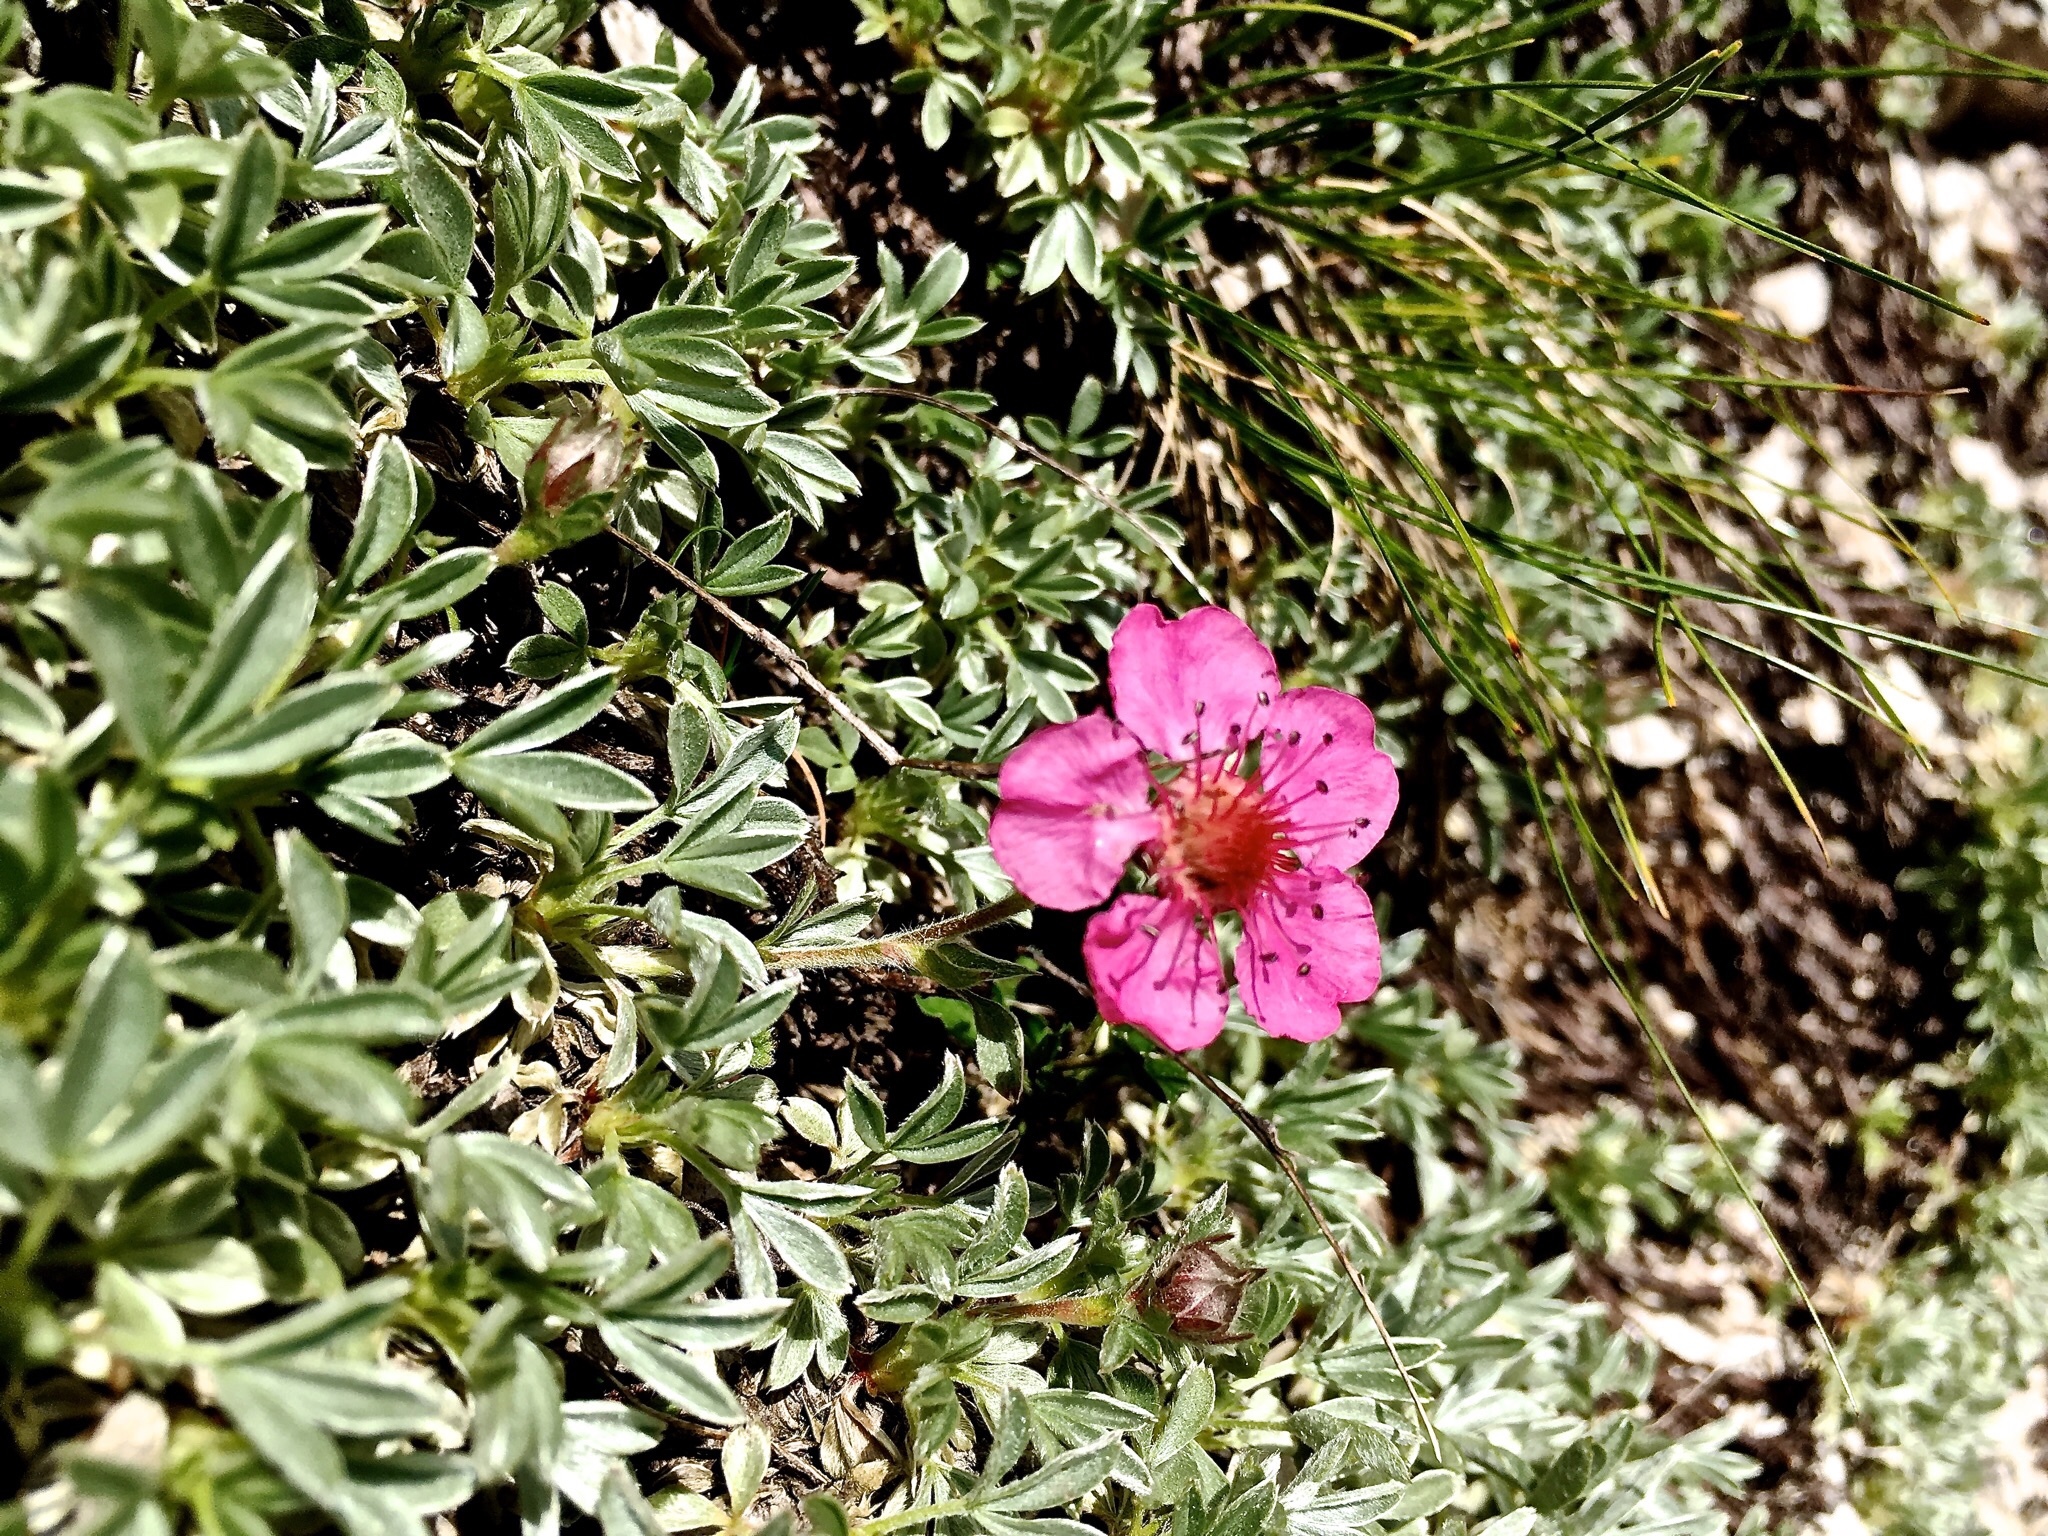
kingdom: Plantae
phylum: Tracheophyta
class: Magnoliopsida
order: Rosales
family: Rosaceae
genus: Potentilla
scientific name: Potentilla nitida
